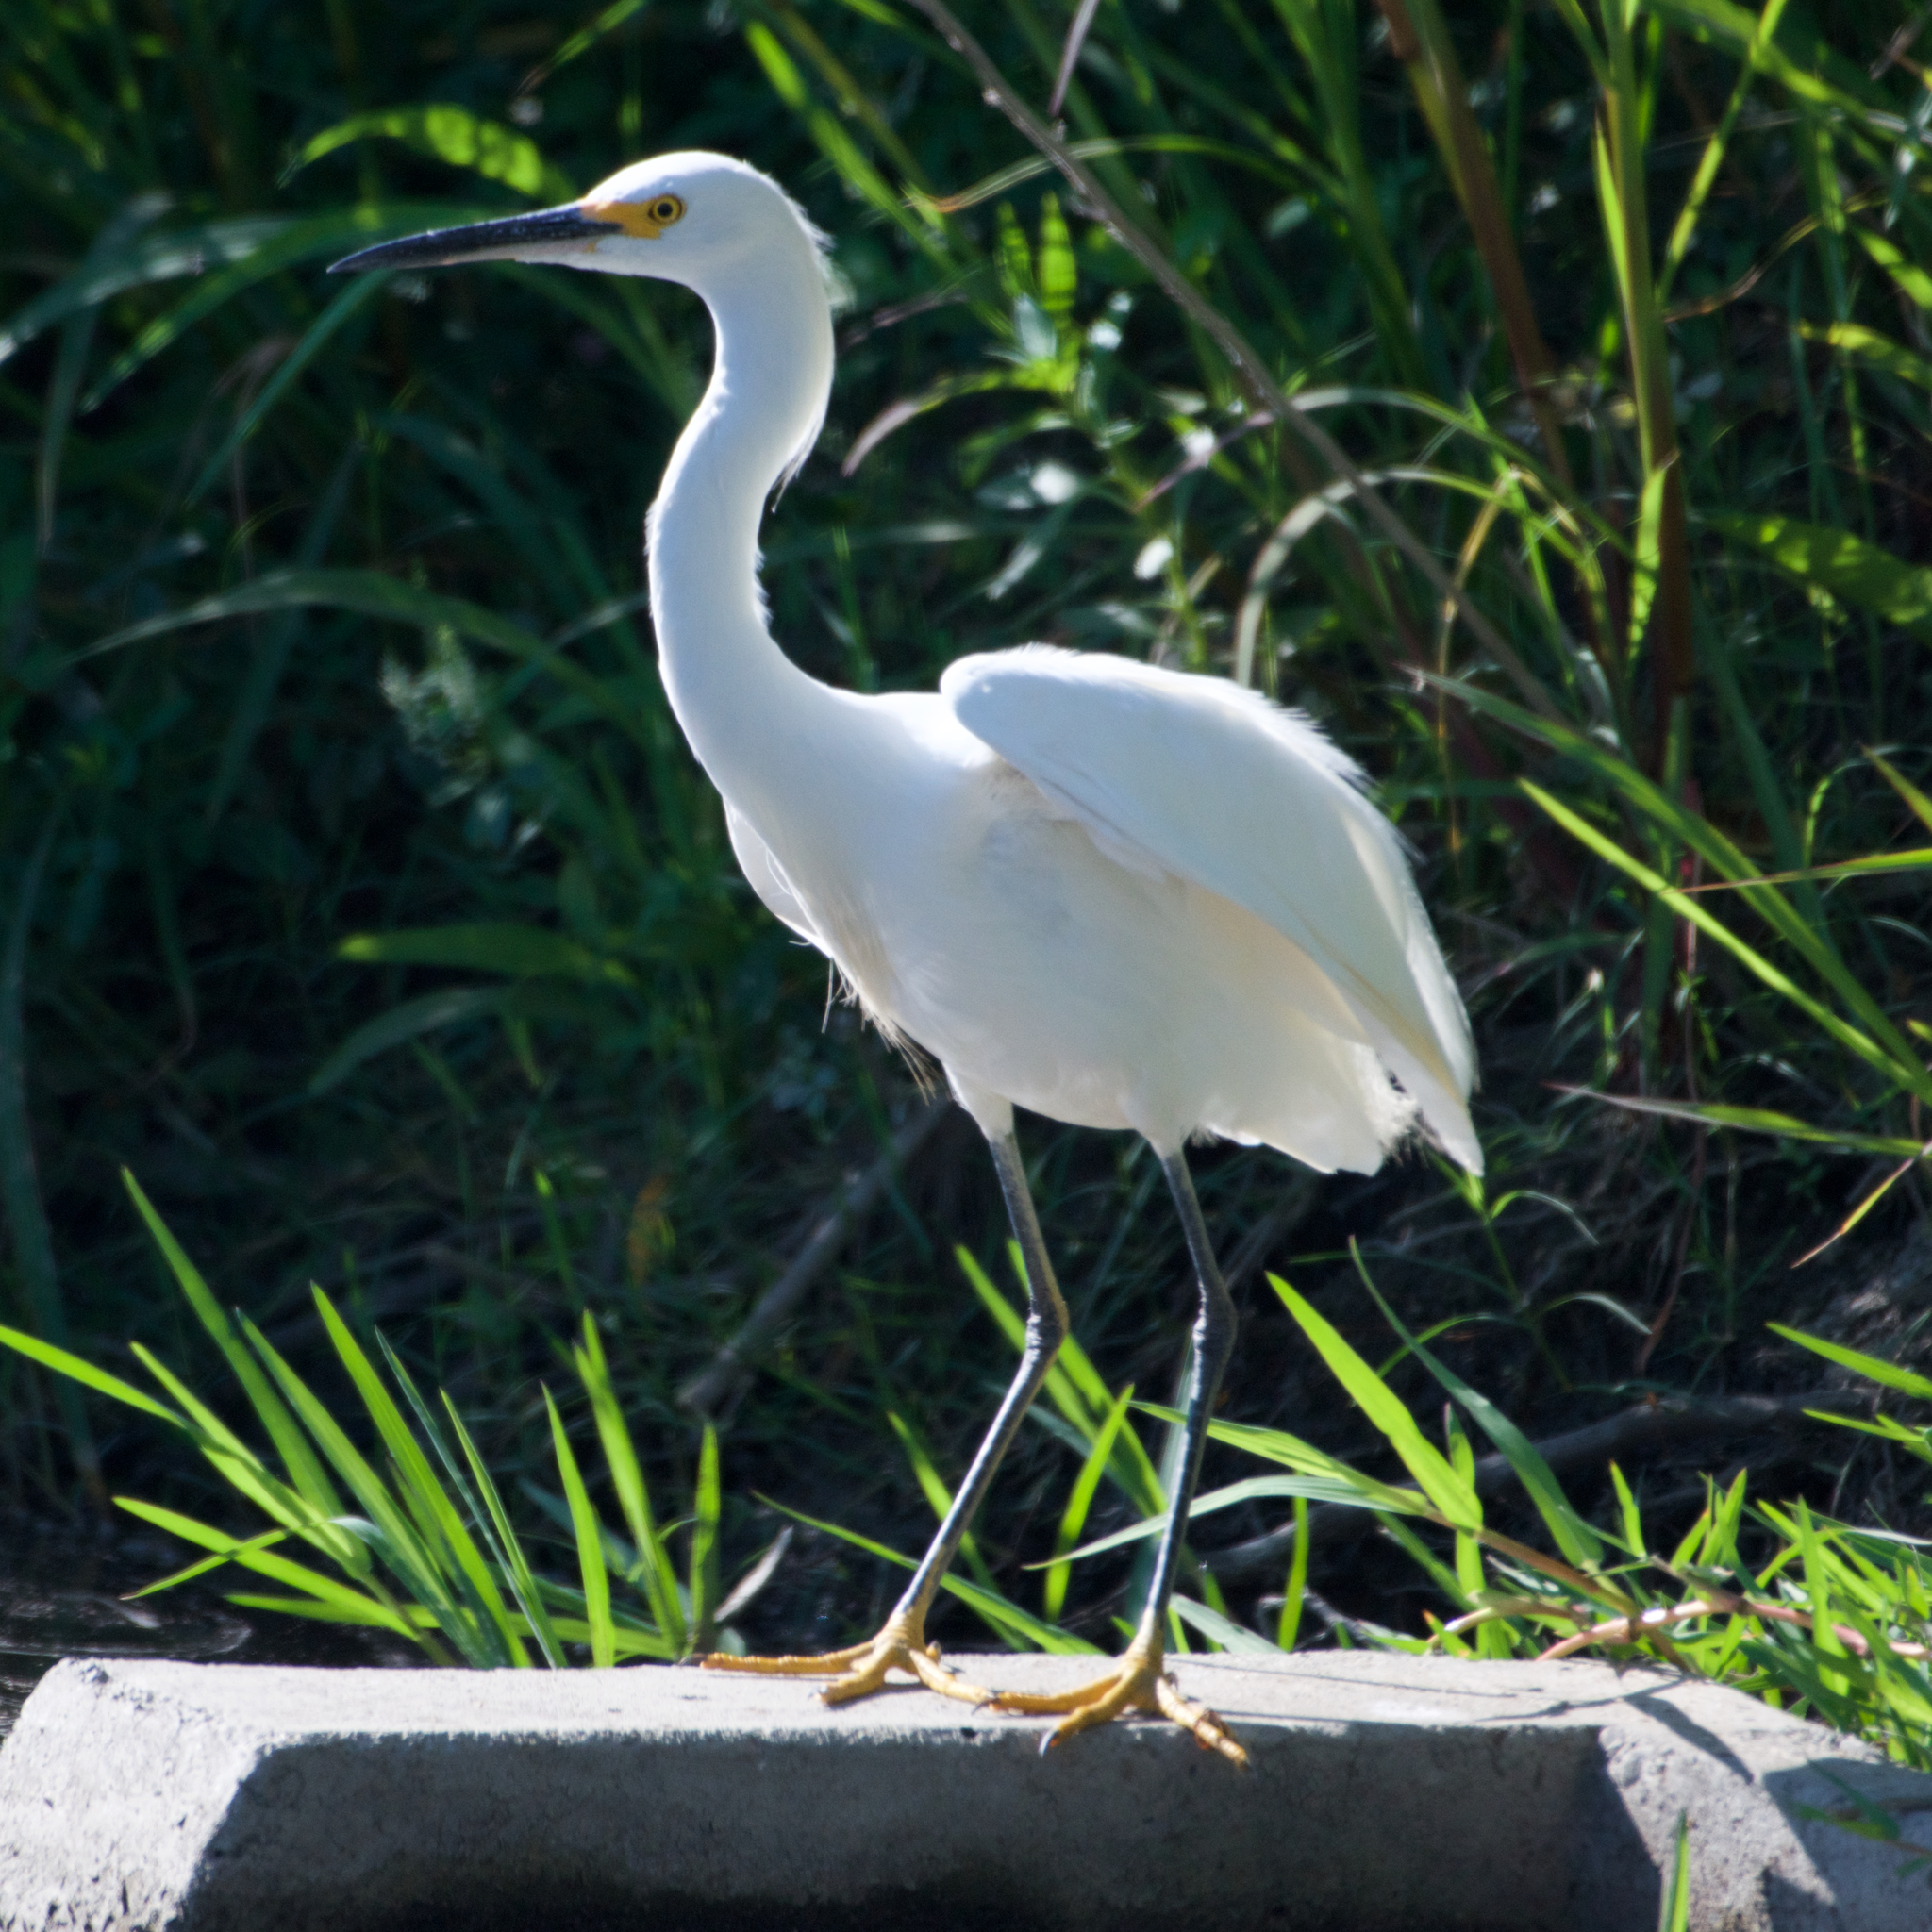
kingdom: Animalia
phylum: Chordata
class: Aves
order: Pelecaniformes
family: Ardeidae
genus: Egretta
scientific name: Egretta thula
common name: Snowy egret
